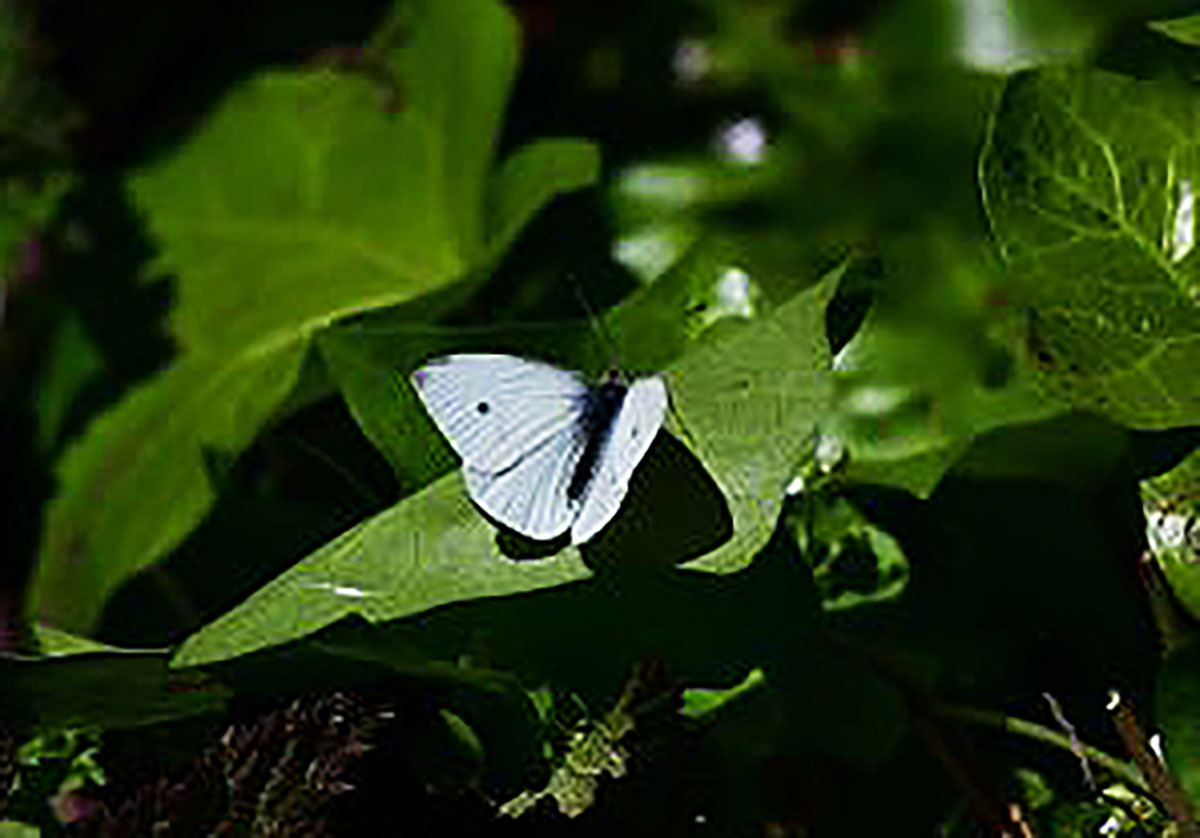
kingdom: Animalia
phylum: Arthropoda
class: Insecta
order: Lepidoptera
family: Pieridae
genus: Pieris
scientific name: Pieris rapae
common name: Small white
